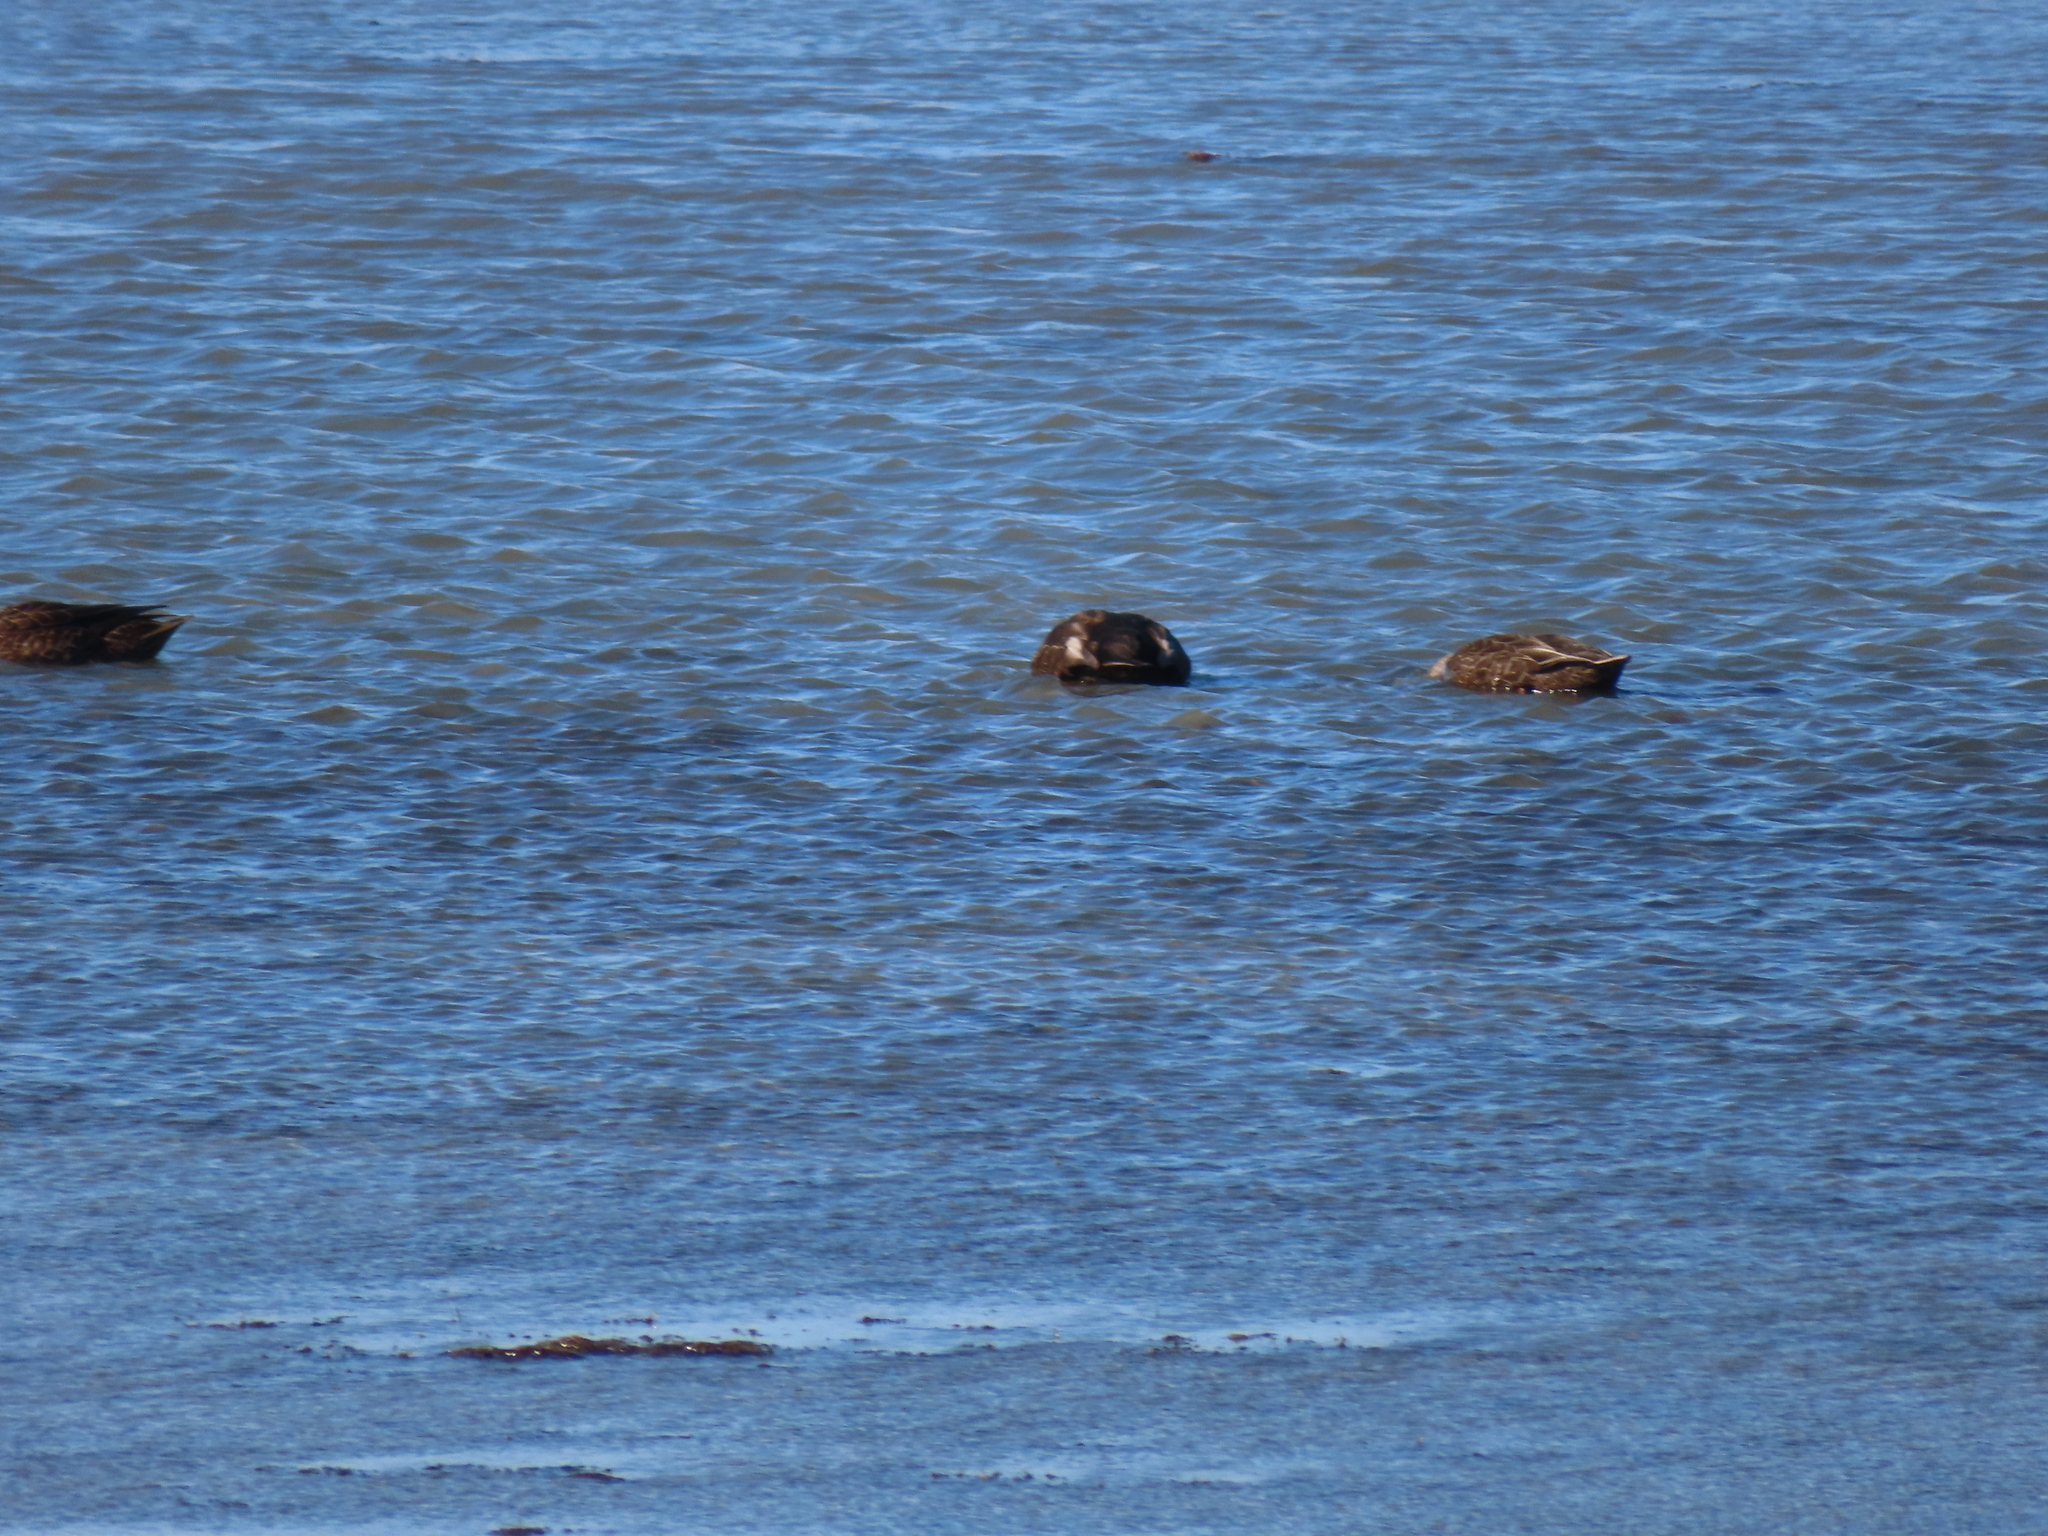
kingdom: Animalia
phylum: Chordata
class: Aves
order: Anseriformes
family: Anatidae
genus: Anas
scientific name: Anas rubripes
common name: American black duck
